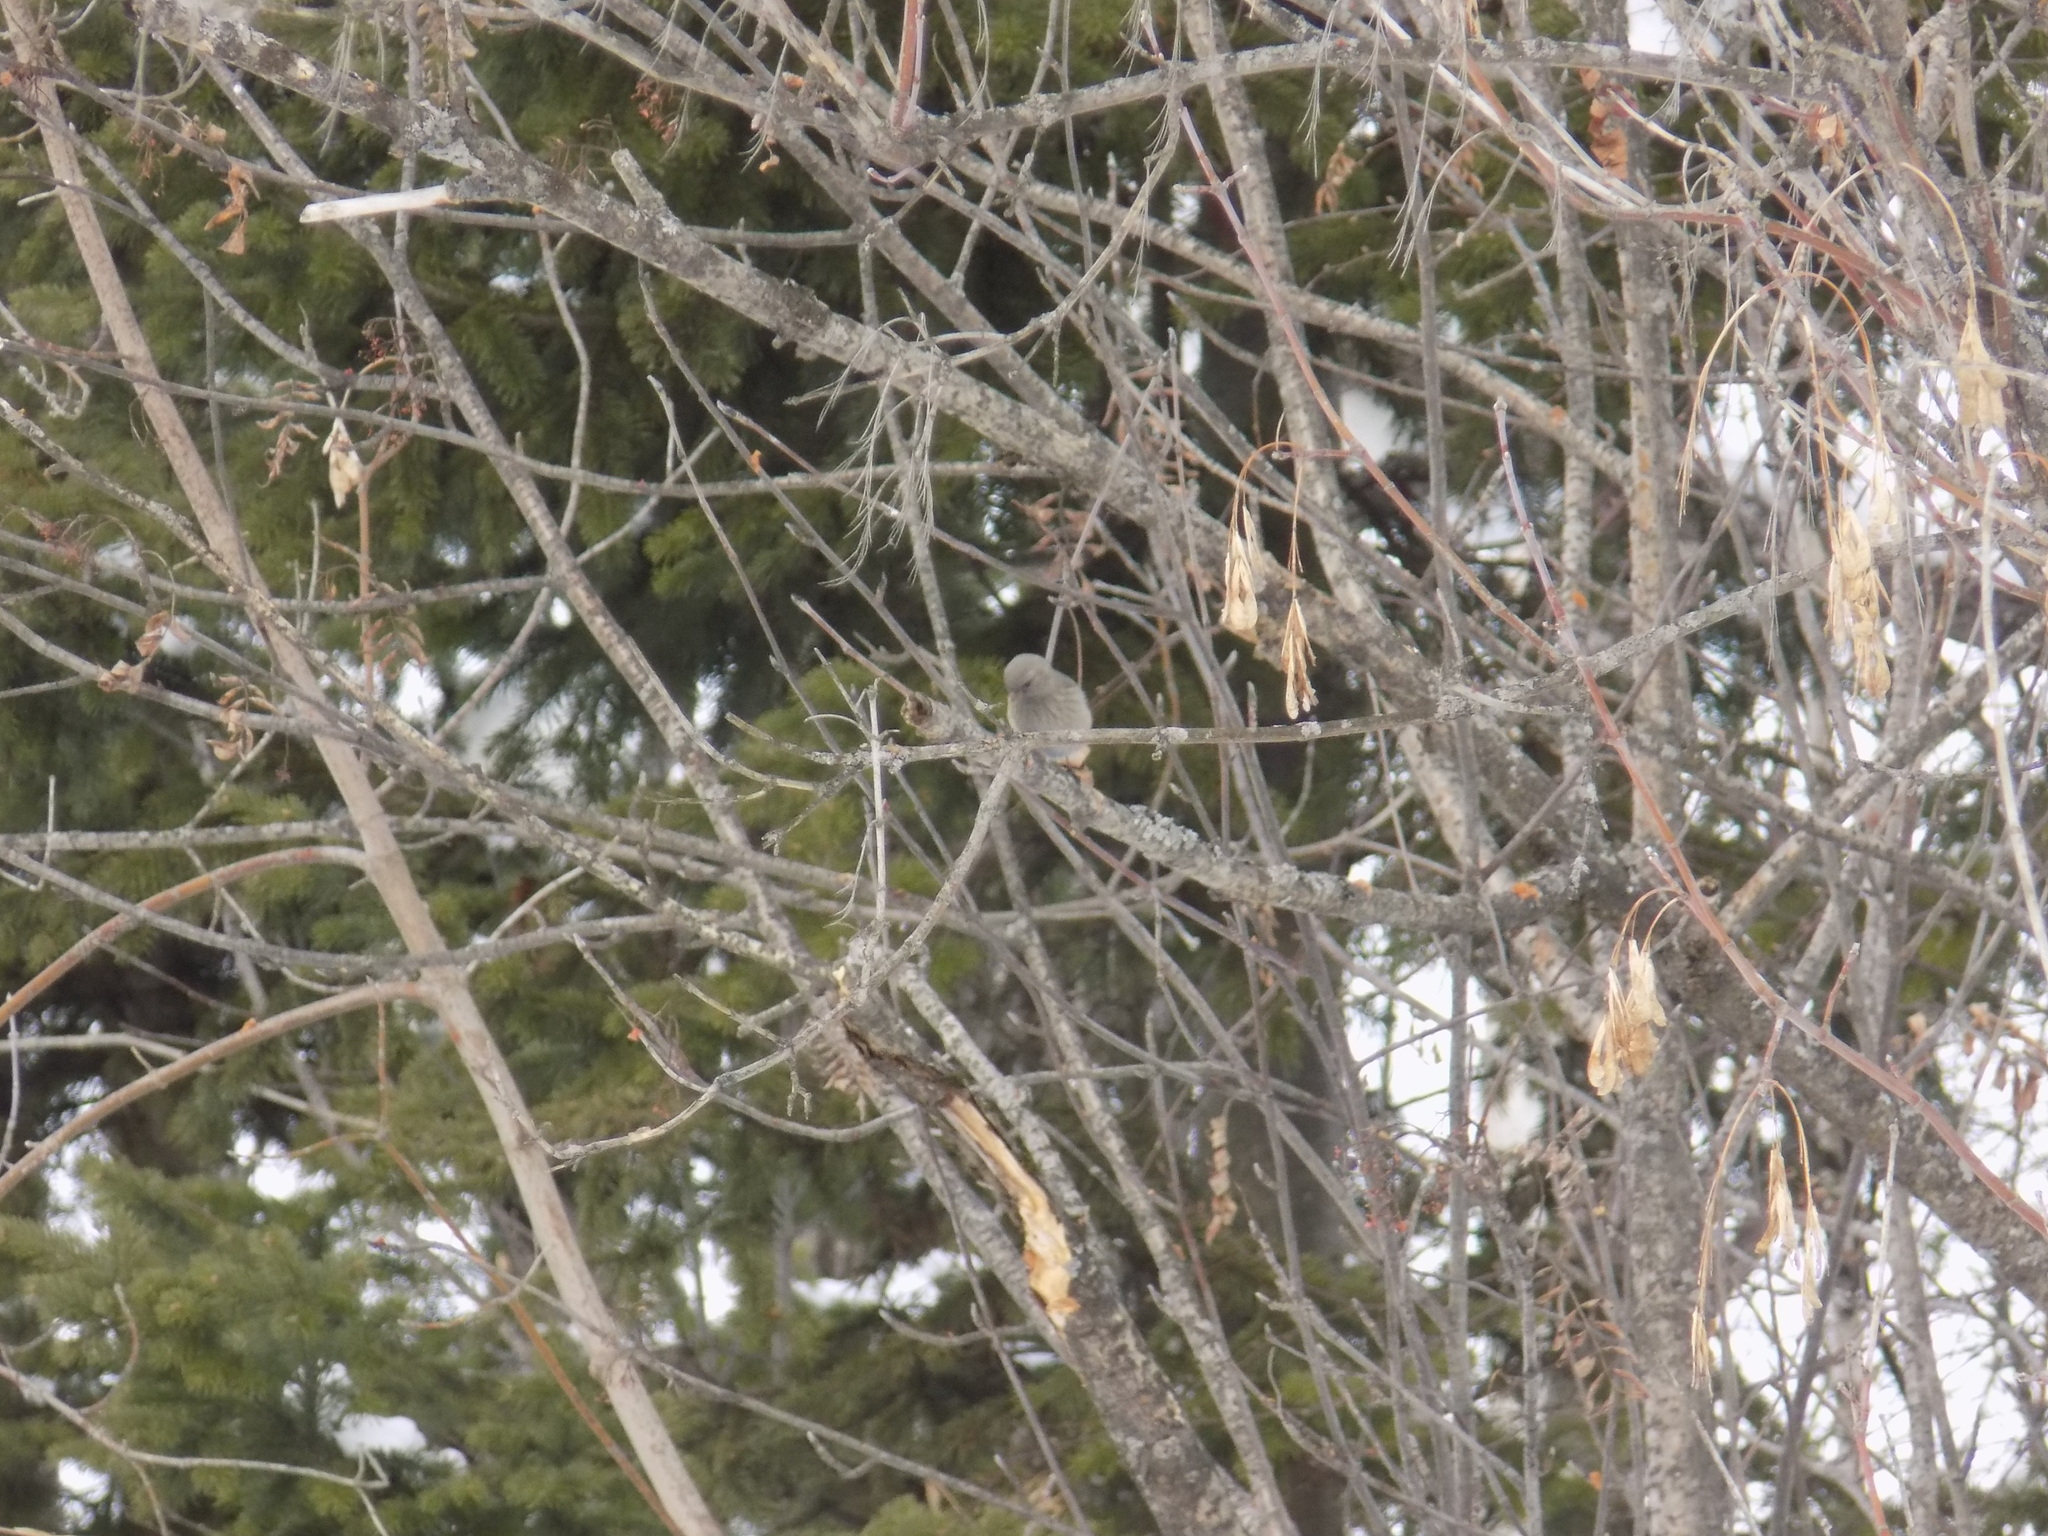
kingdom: Animalia
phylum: Chordata
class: Aves
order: Passeriformes
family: Fringillidae
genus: Carpodacus
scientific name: Carpodacus sibiricus
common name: Long-tailed rosefinch
